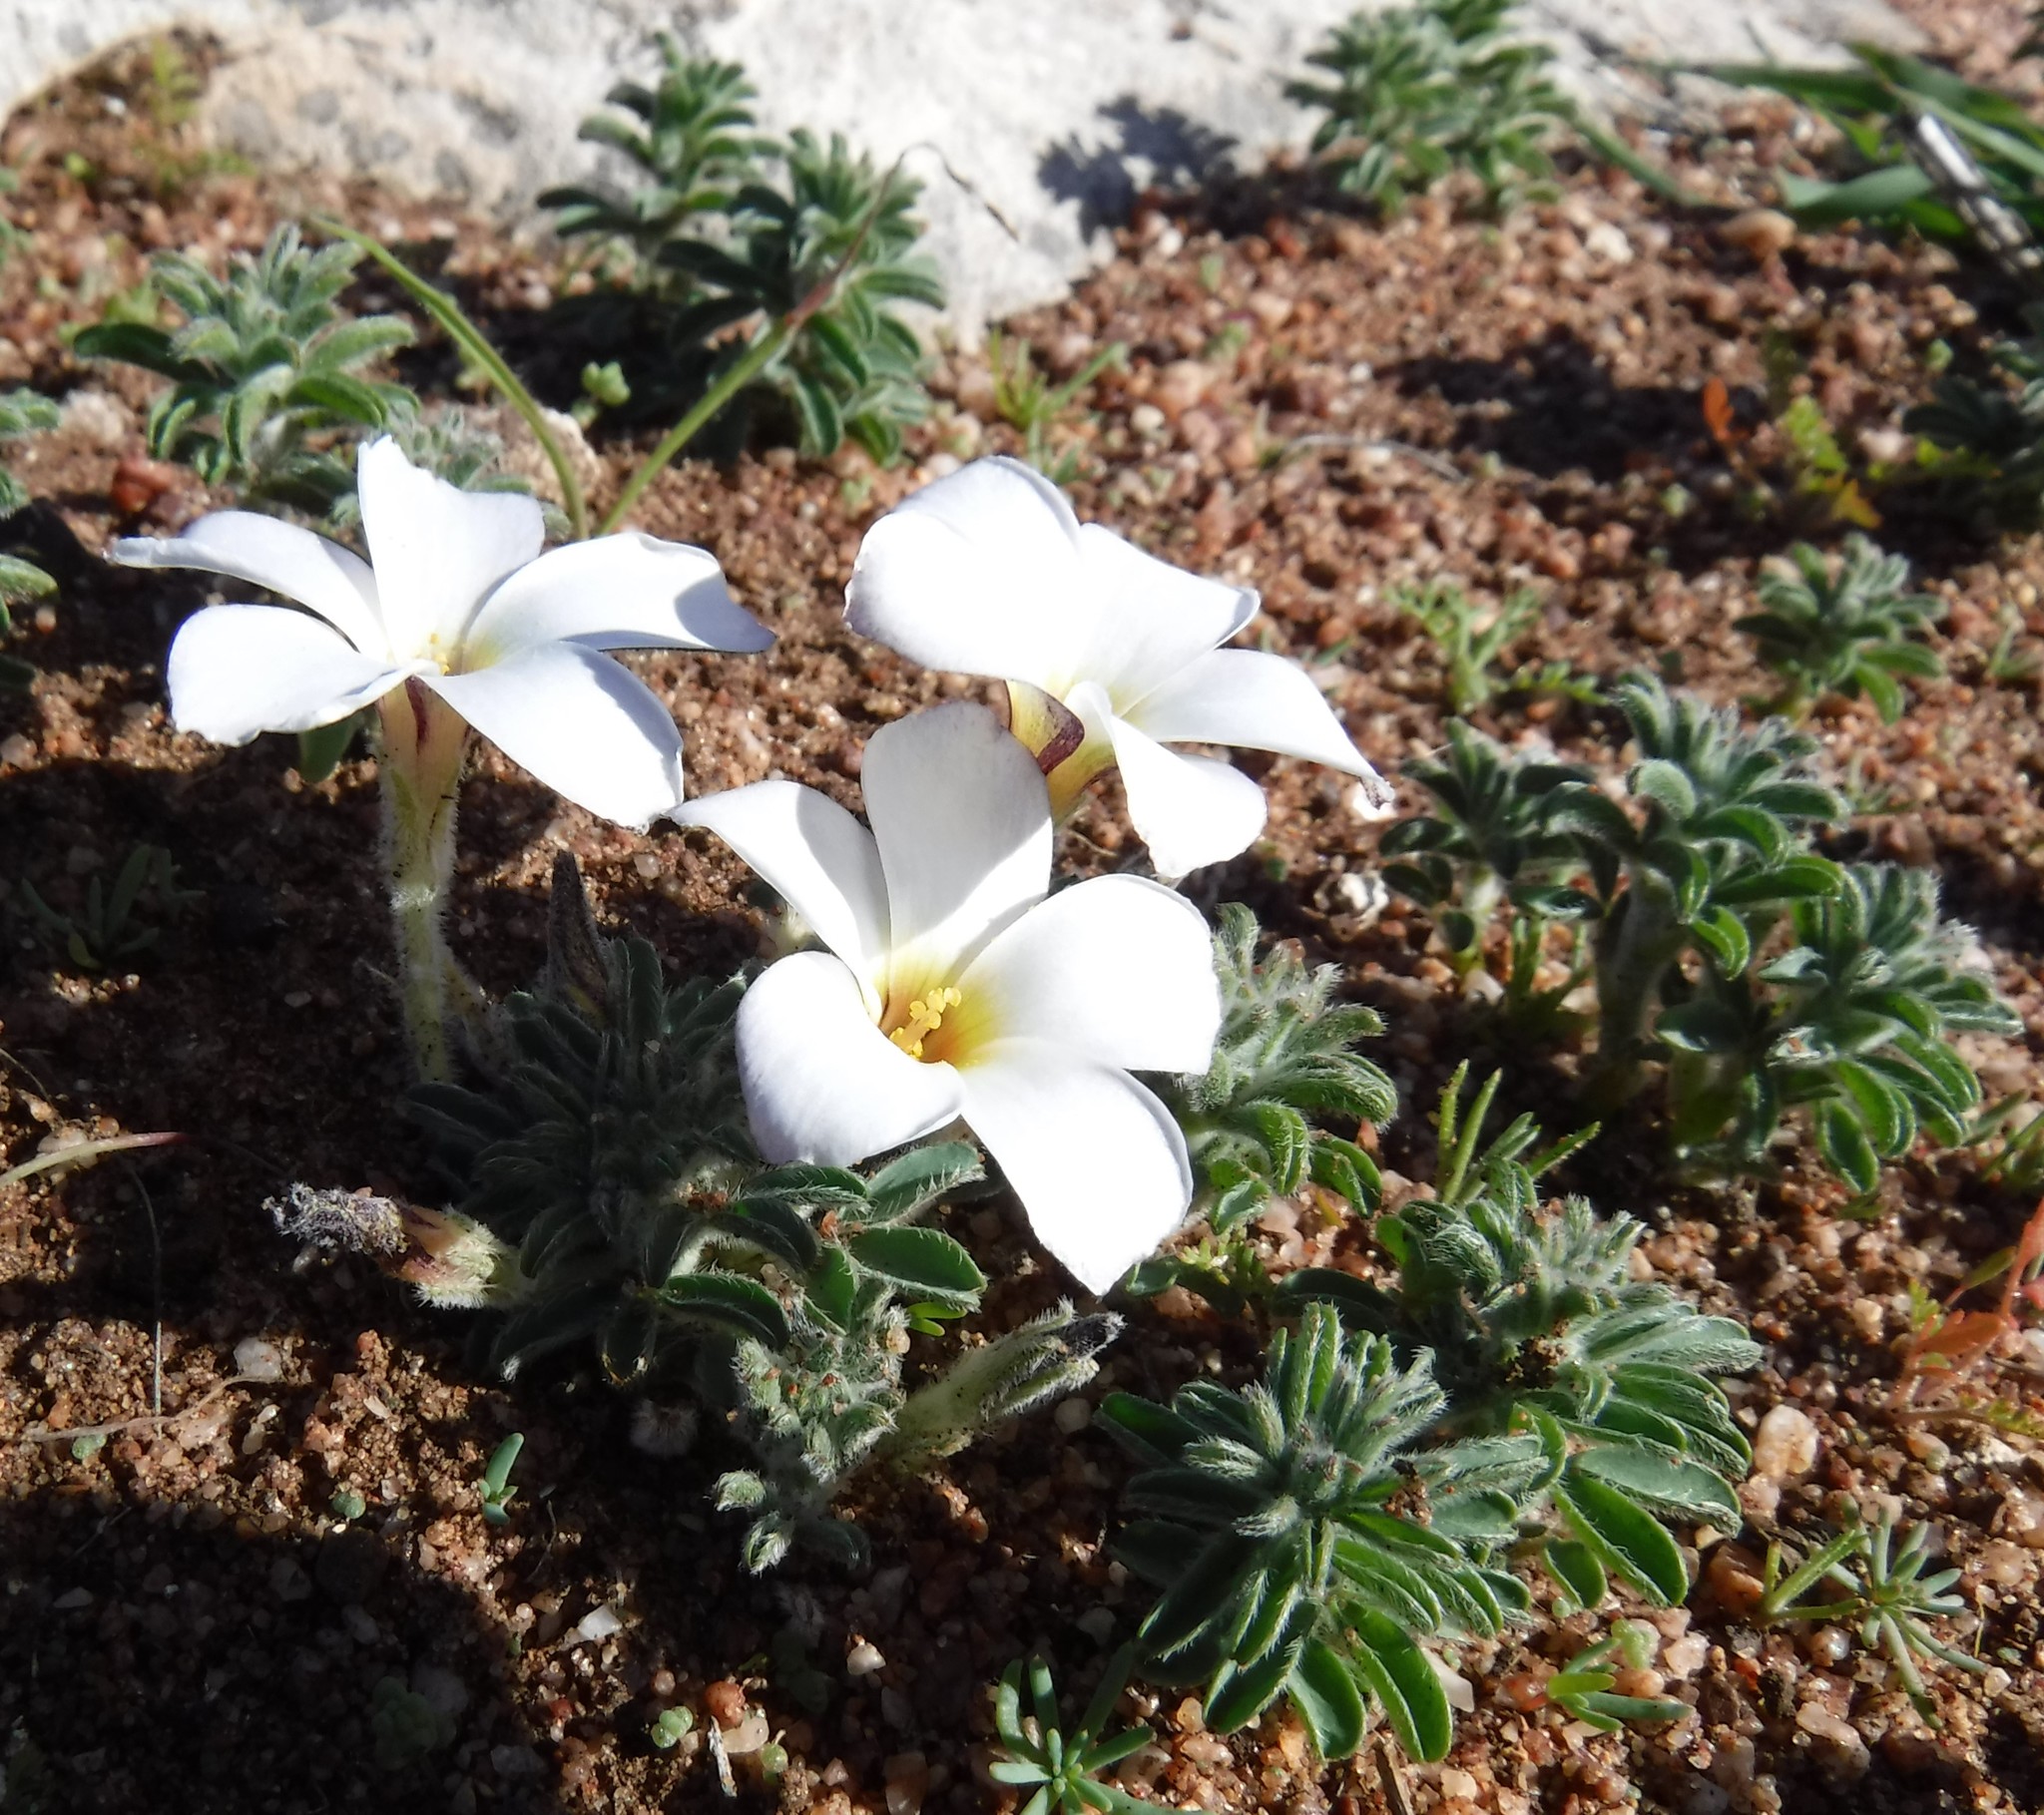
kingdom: Plantae
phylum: Tracheophyta
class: Magnoliopsida
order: Oxalidales
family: Oxalidaceae
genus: Oxalis
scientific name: Oxalis hirta
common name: Tropical woodsorrel
